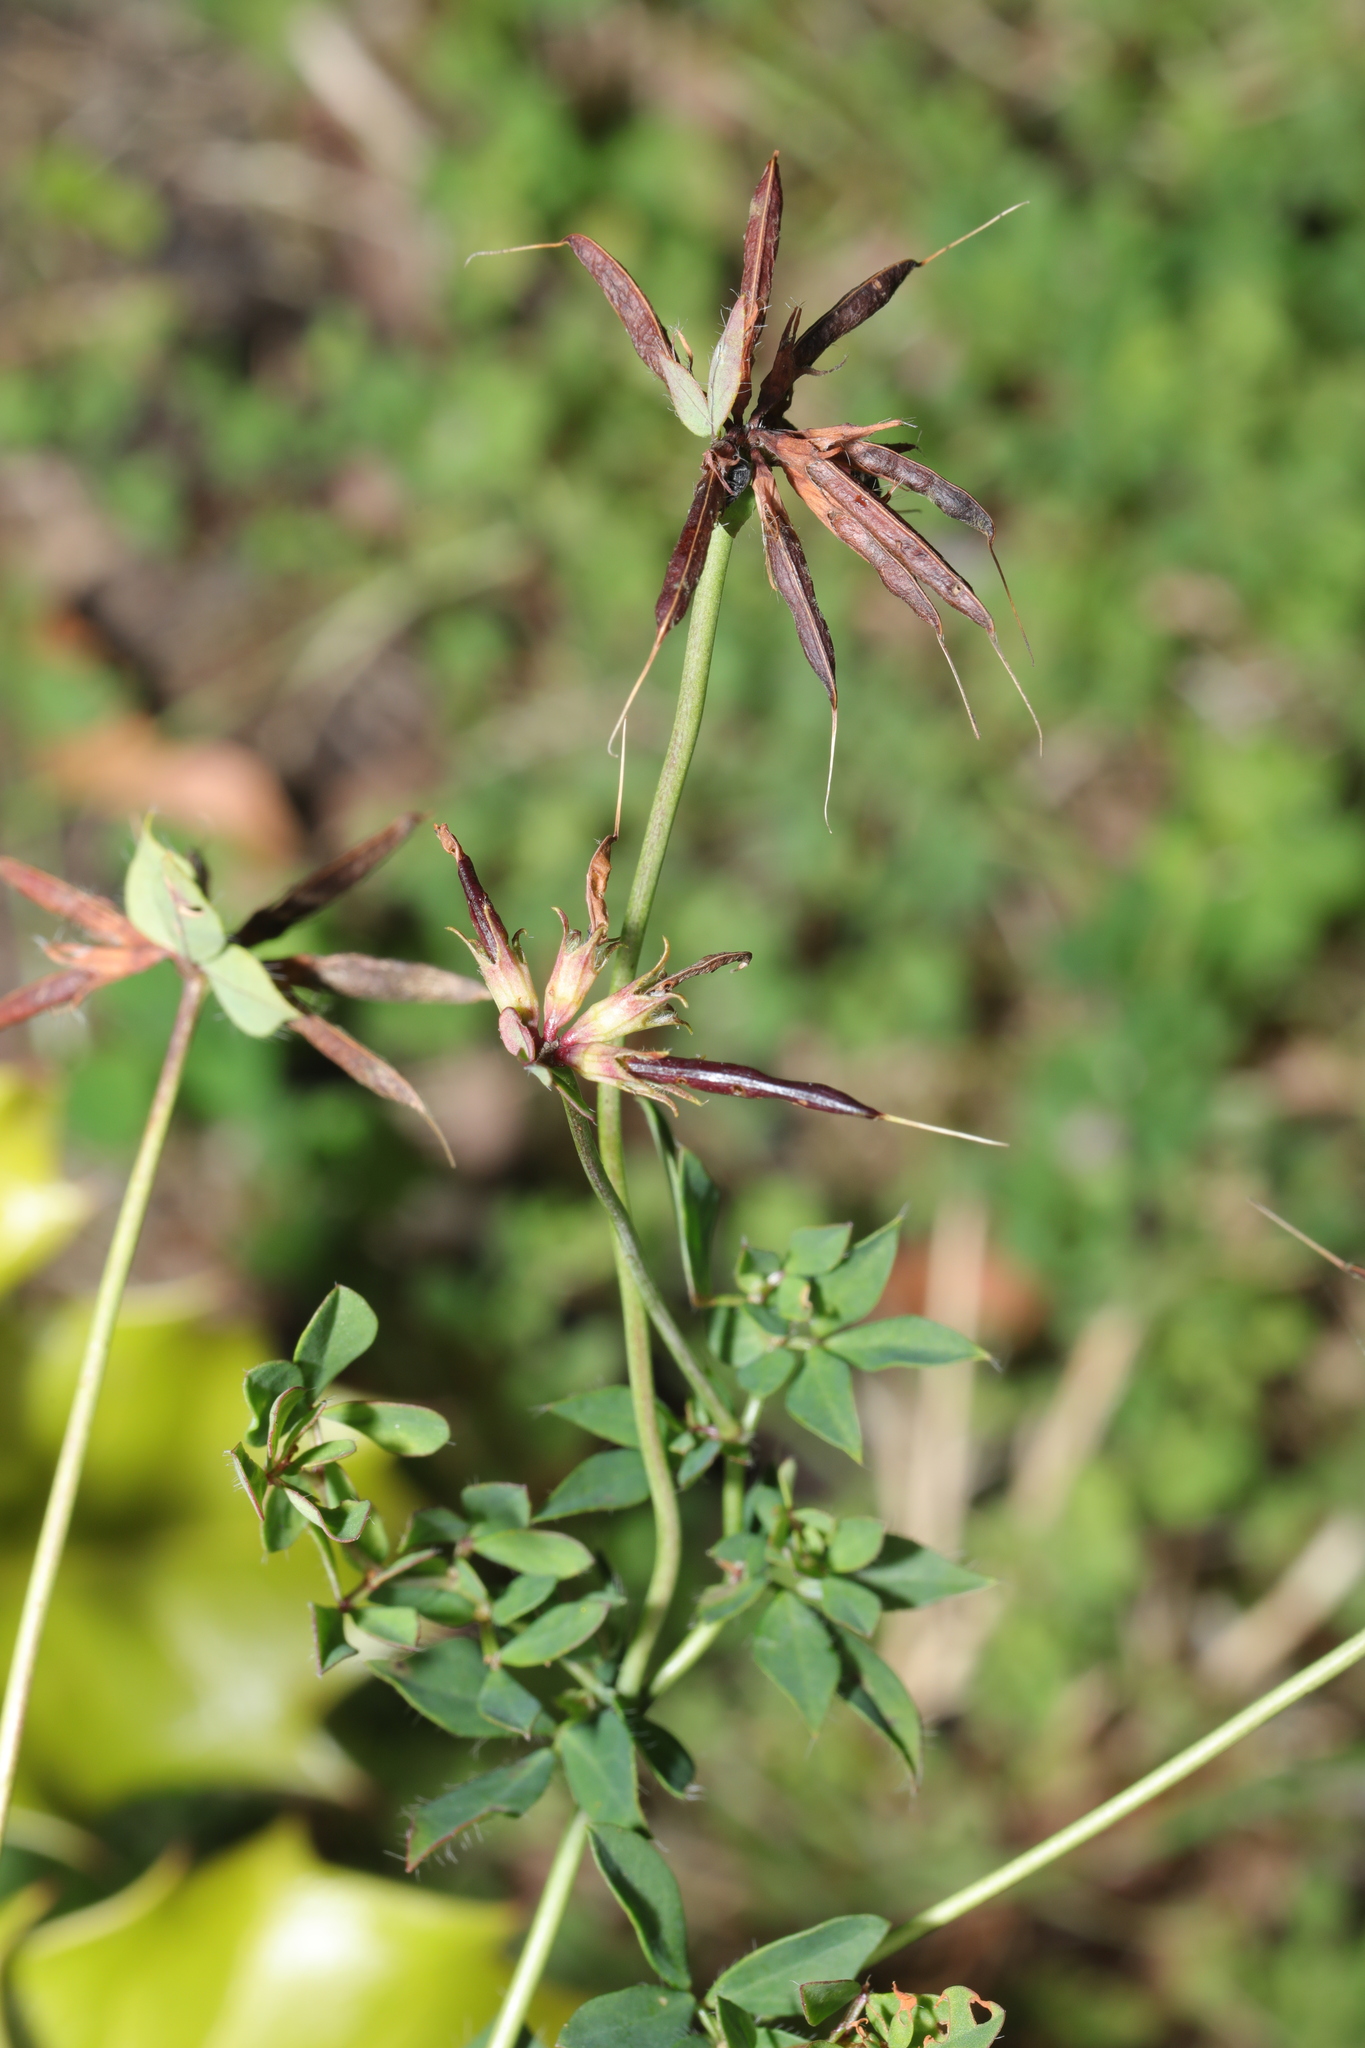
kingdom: Plantae
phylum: Tracheophyta
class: Magnoliopsida
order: Fabales
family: Fabaceae
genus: Lotus
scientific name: Lotus pedunculatus
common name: Greater birdsfoot-trefoil
